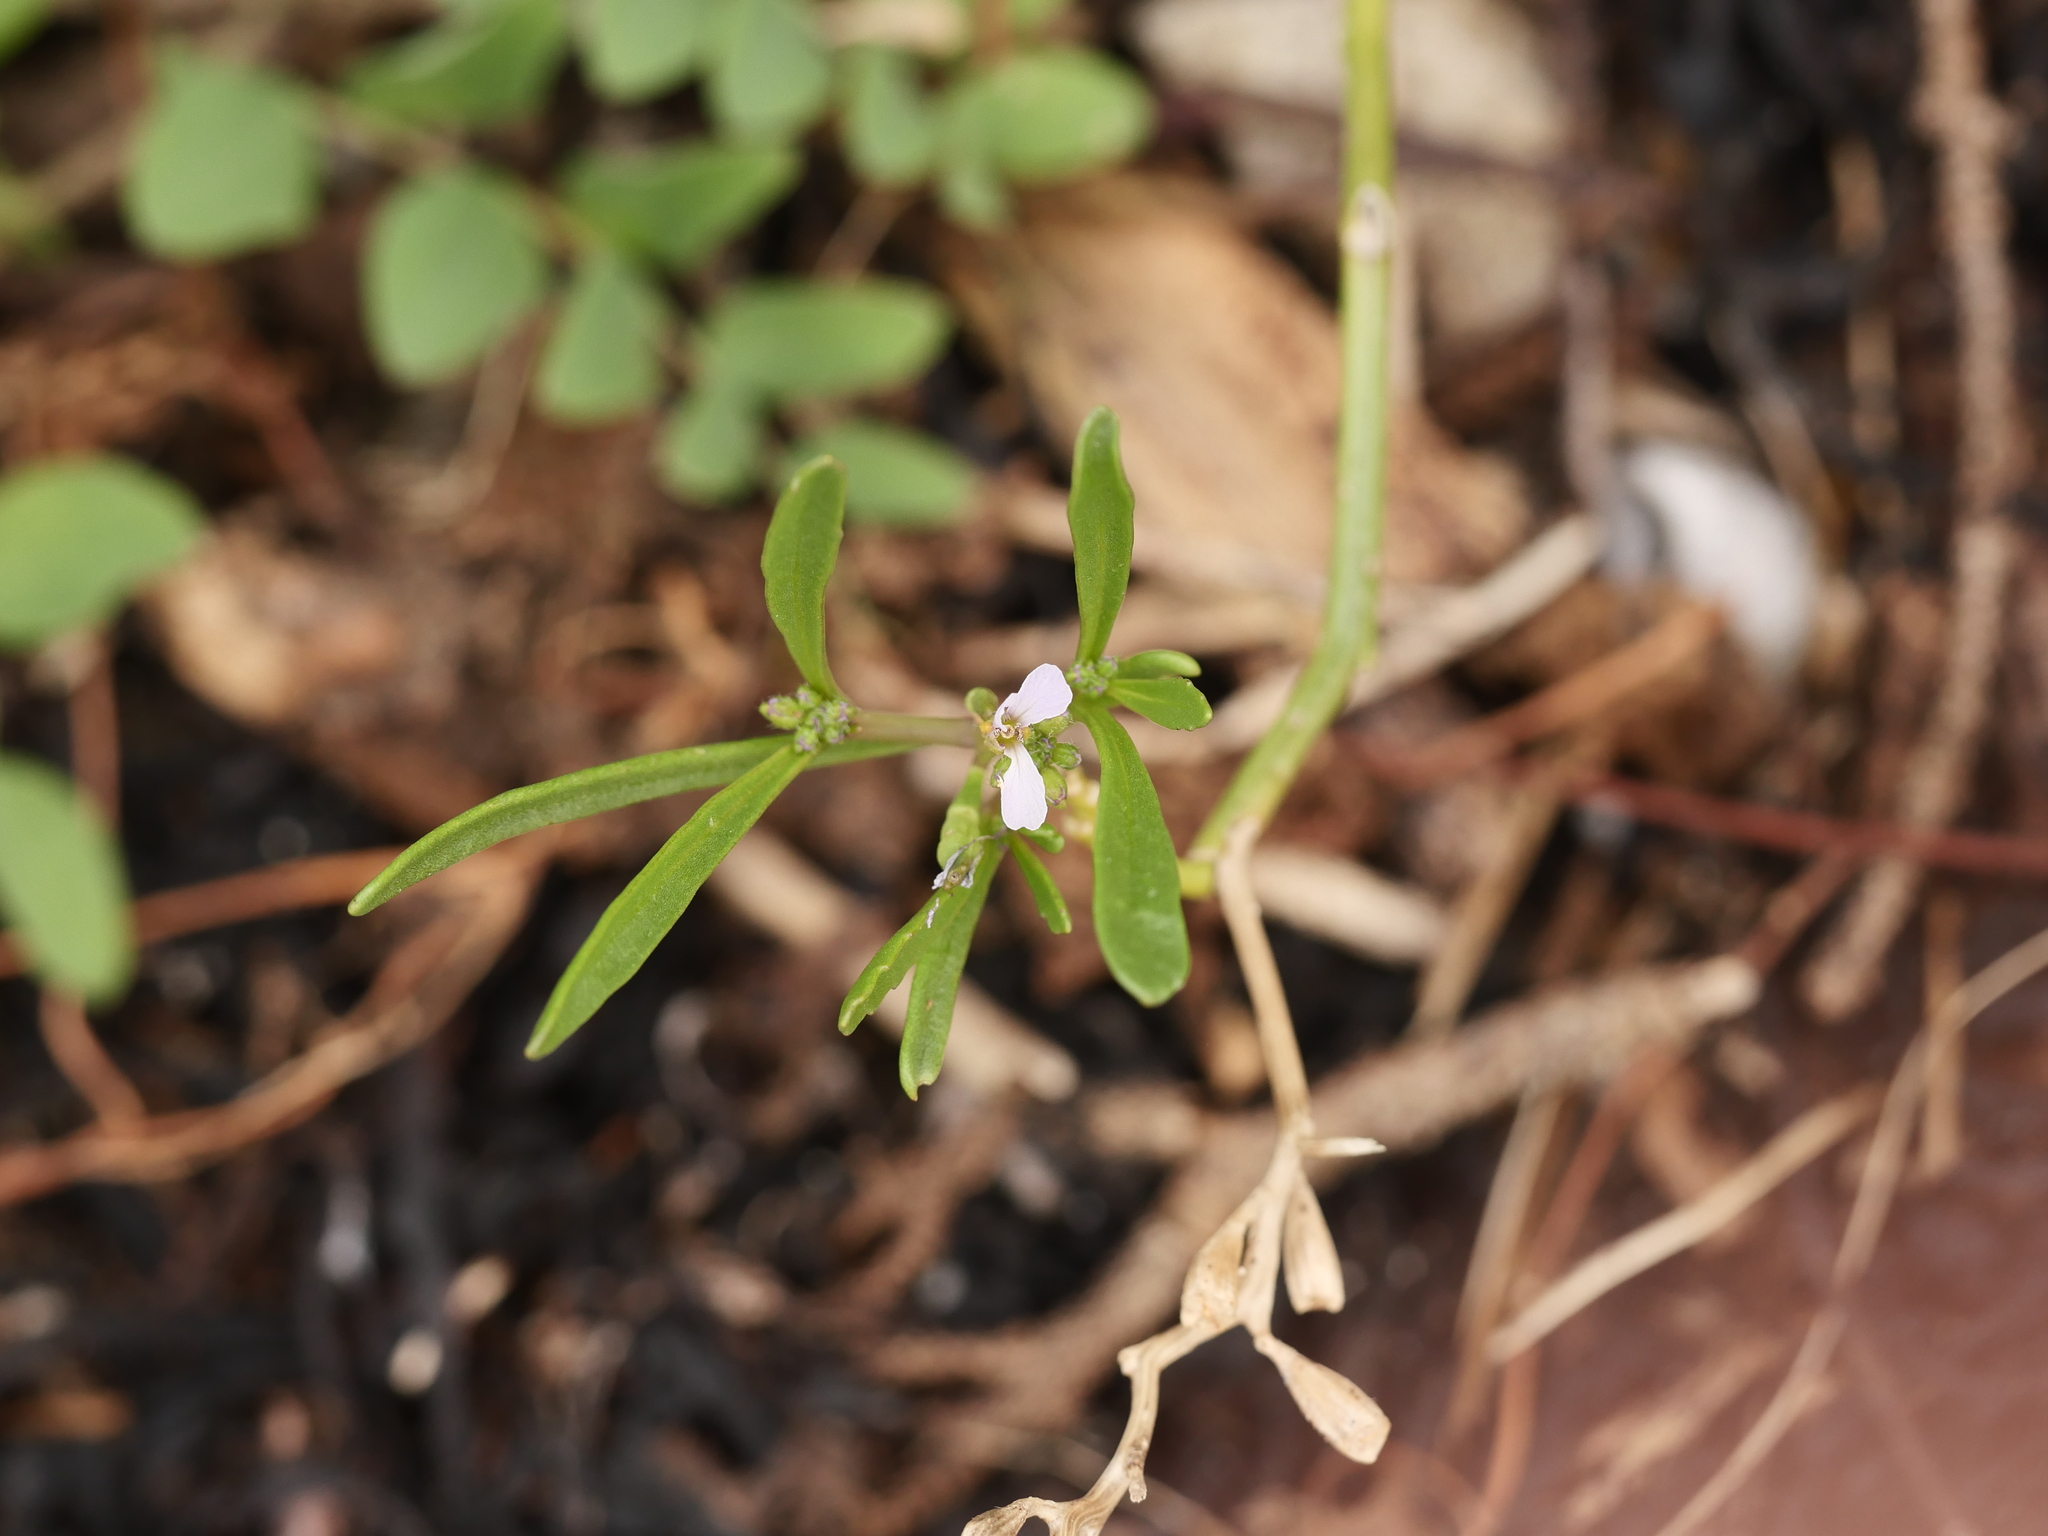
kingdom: Plantae
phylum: Tracheophyta
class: Magnoliopsida
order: Brassicales
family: Brassicaceae
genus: Cakile
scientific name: Cakile edentula
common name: American sea rocket
